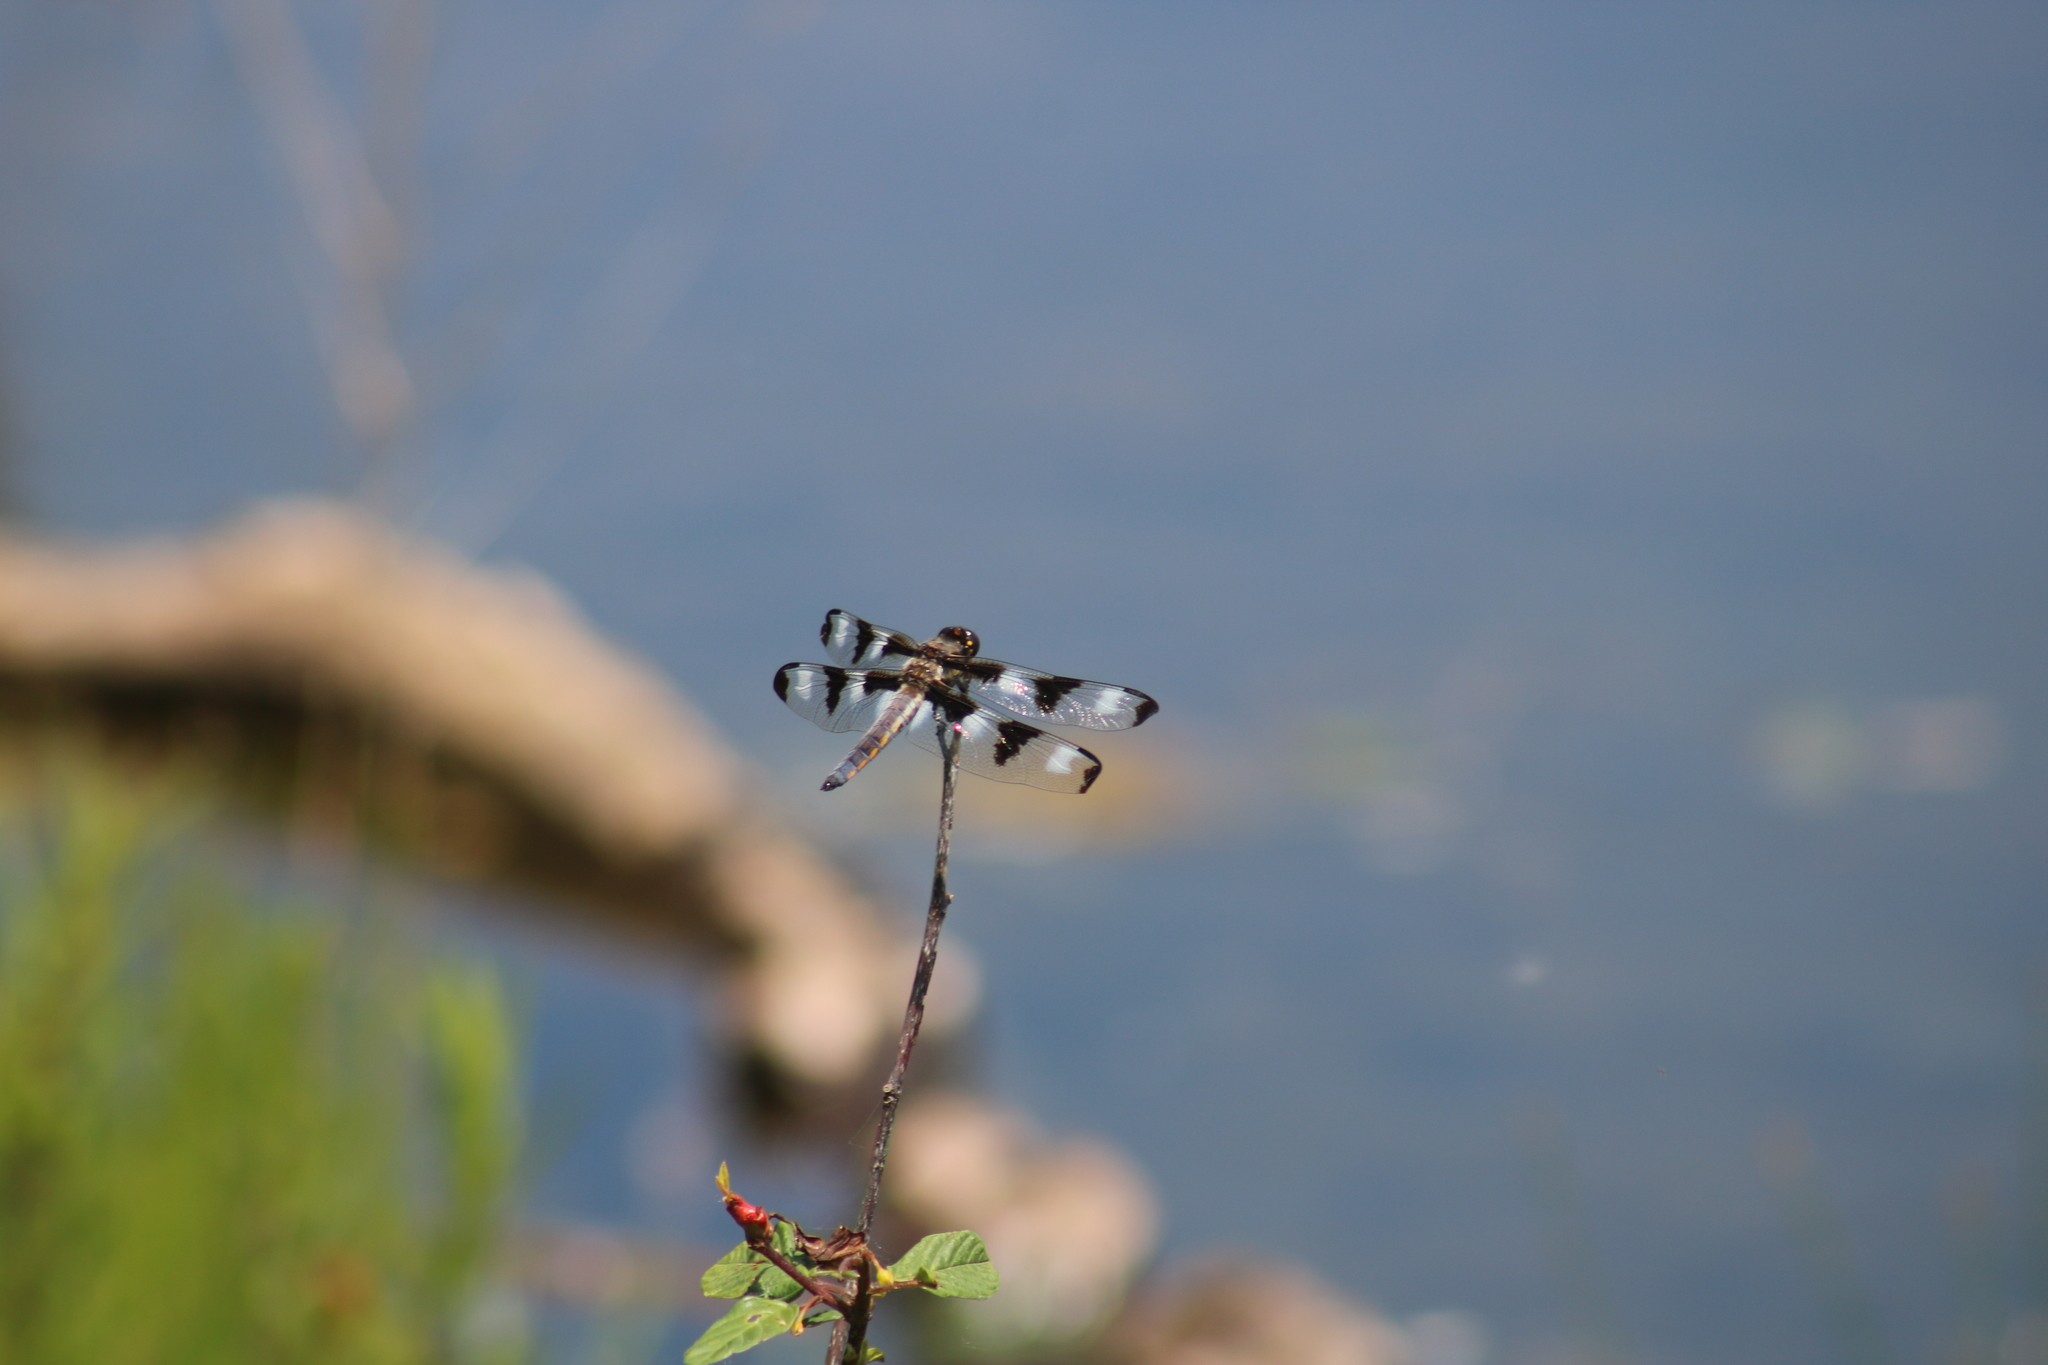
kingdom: Animalia
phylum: Arthropoda
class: Insecta
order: Odonata
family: Libellulidae
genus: Libellula
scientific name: Libellula pulchella
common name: Twelve-spotted skimmer
